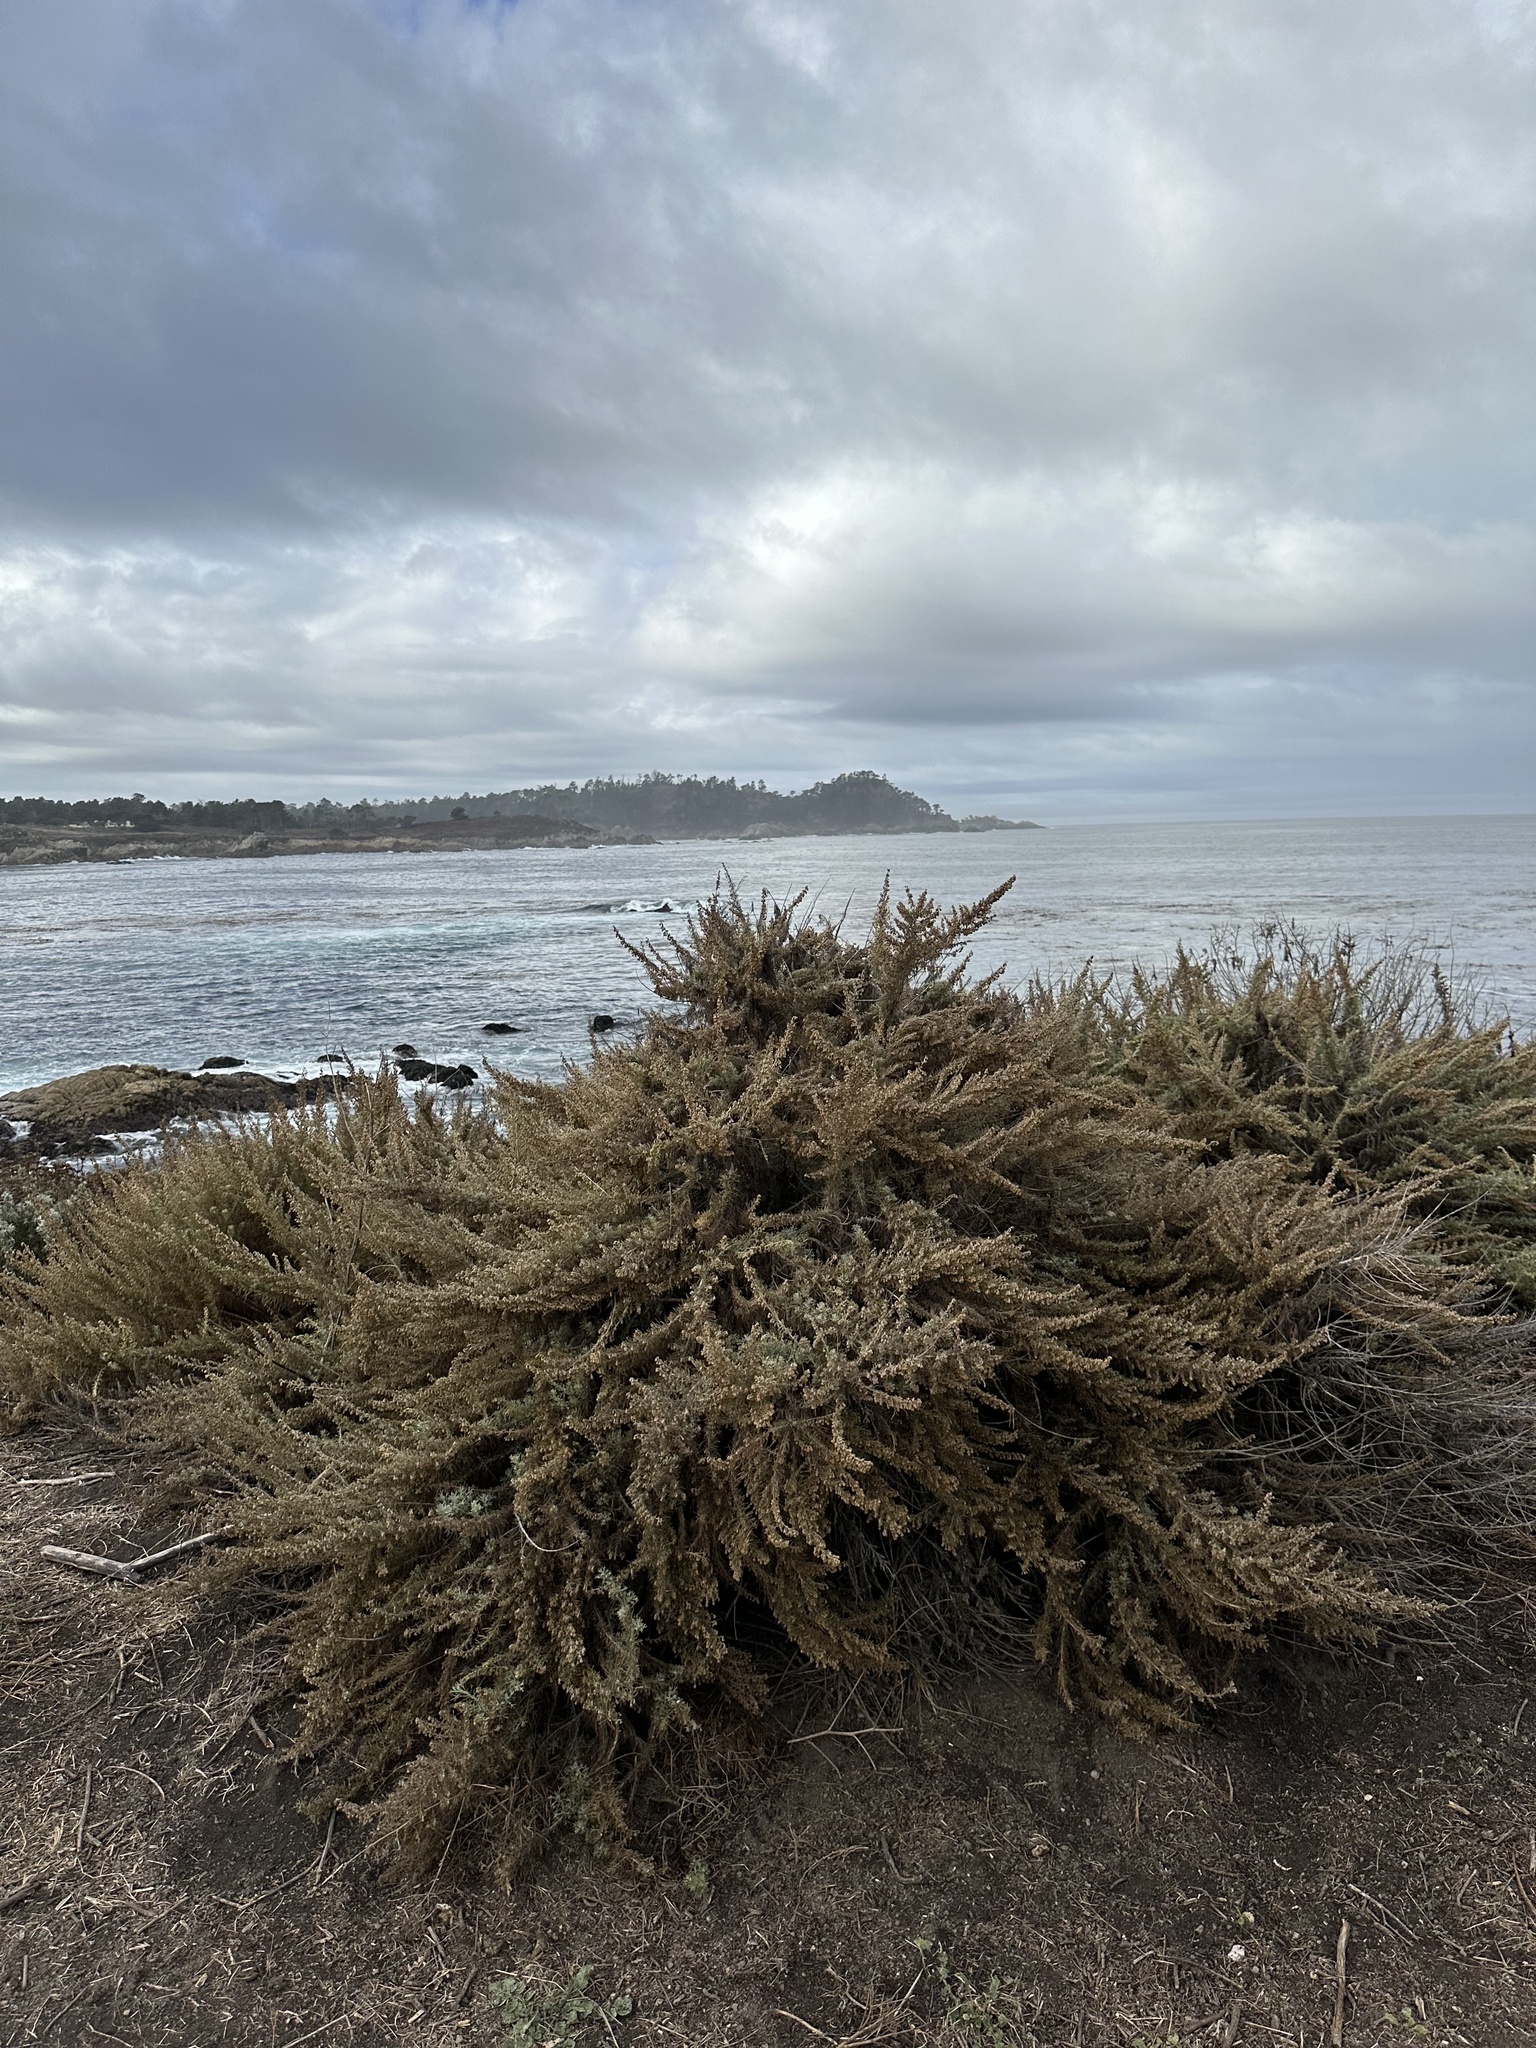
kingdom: Plantae
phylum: Tracheophyta
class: Magnoliopsida
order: Asterales
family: Asteraceae
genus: Artemisia
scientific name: Artemisia californica
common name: California sagebrush
